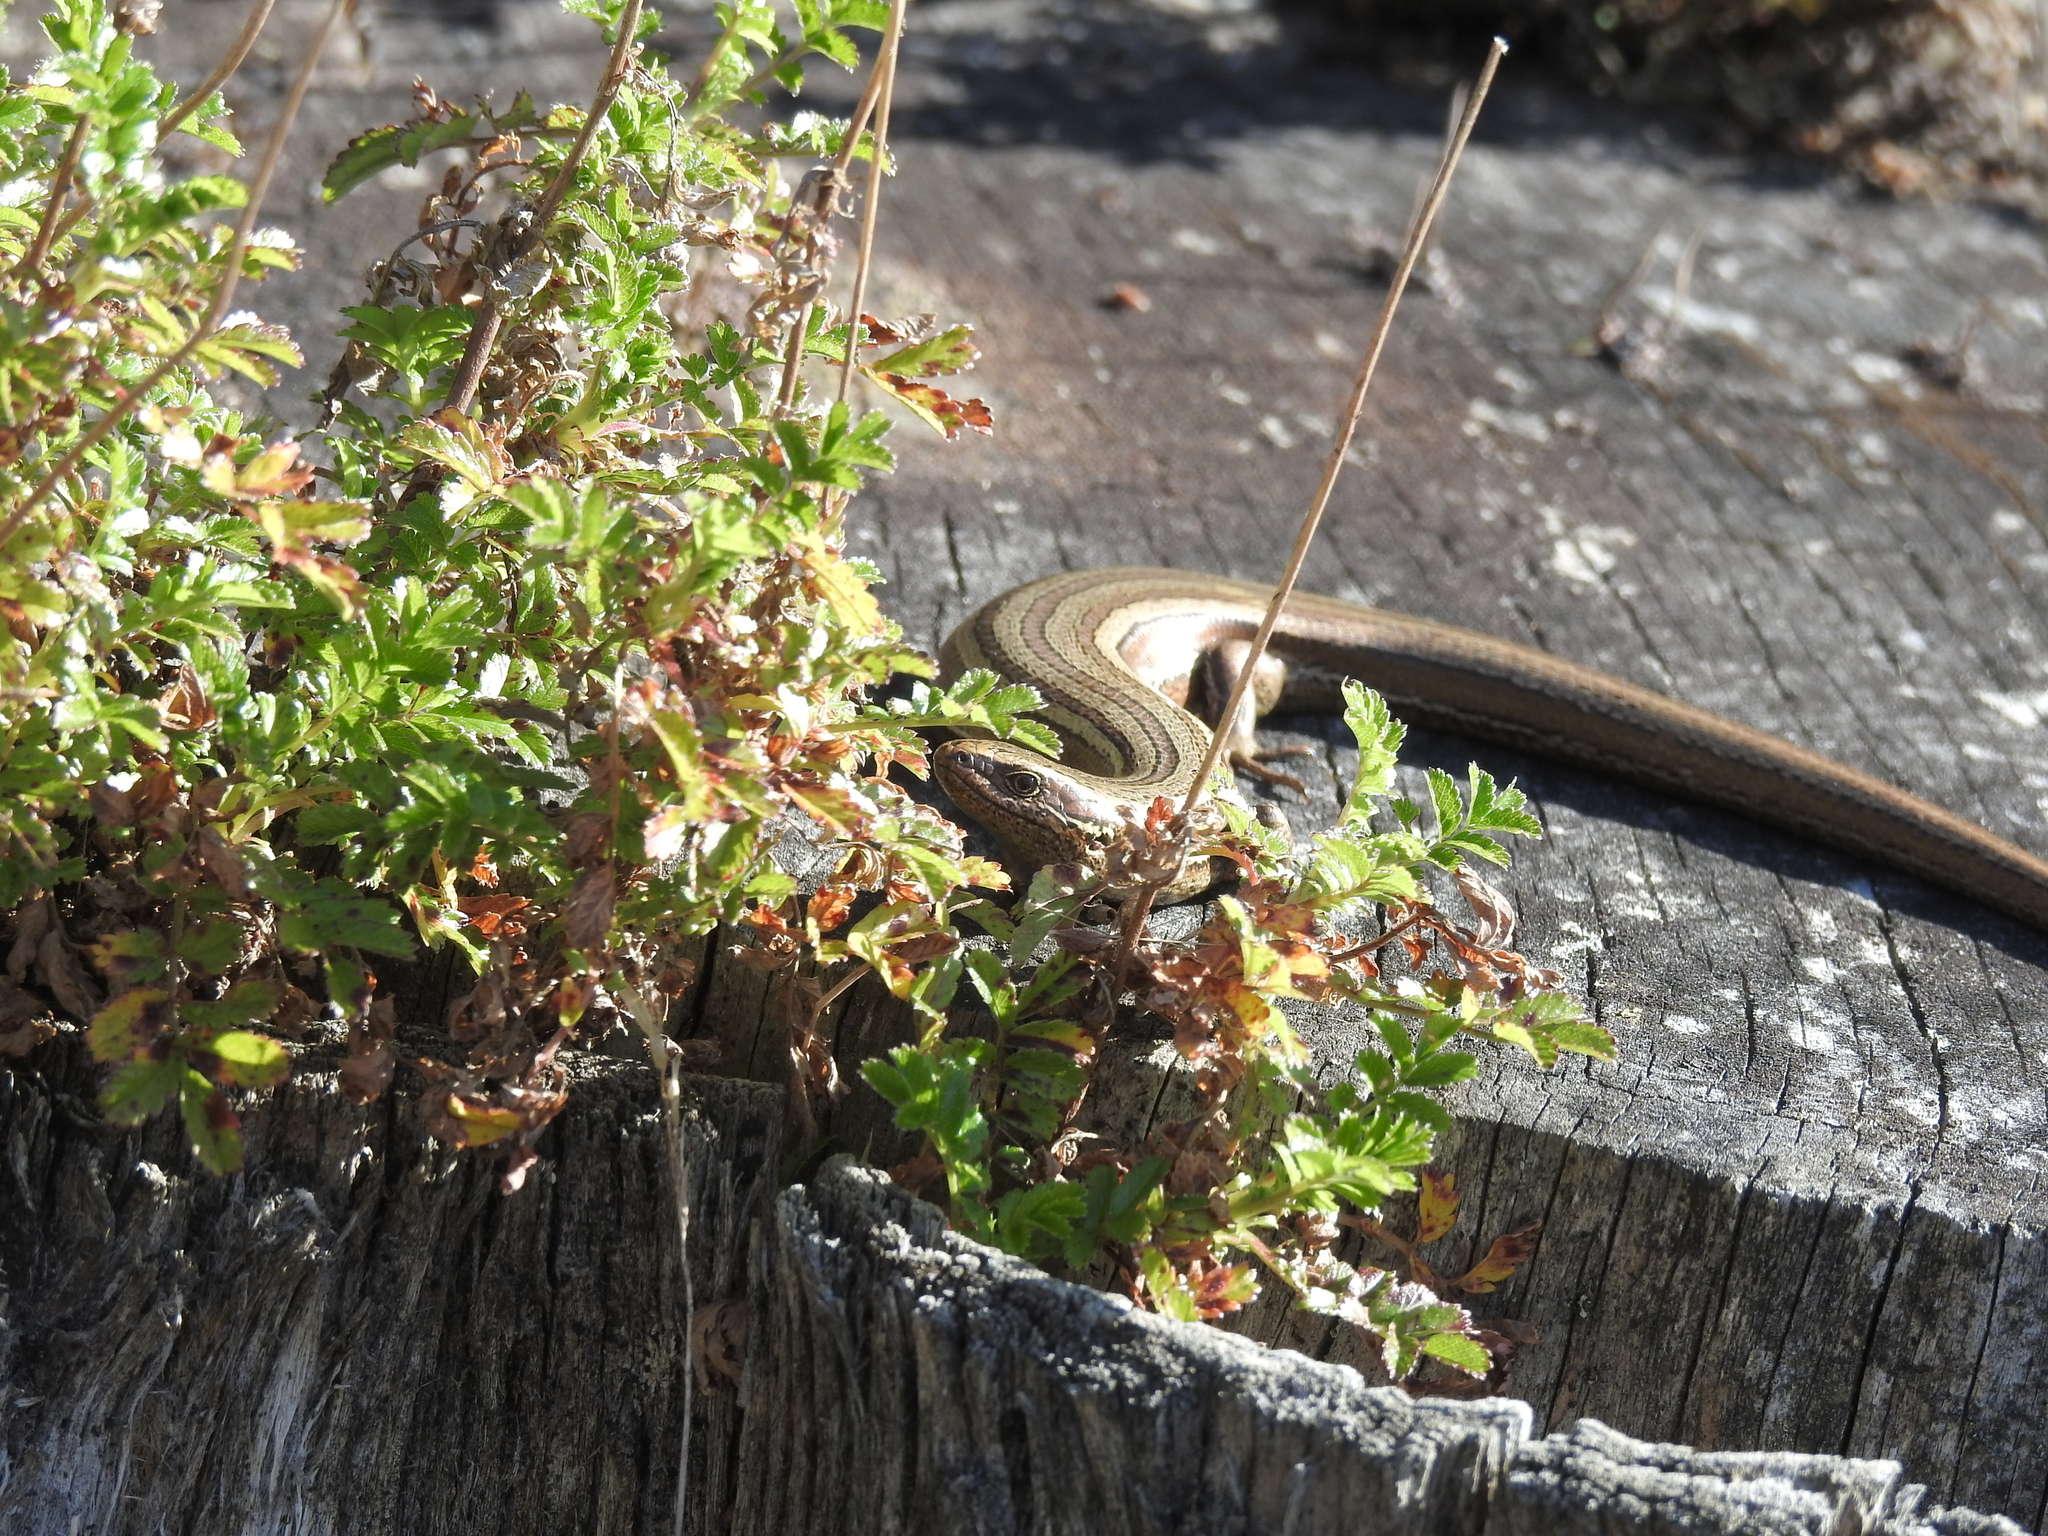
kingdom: Animalia
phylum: Chordata
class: Squamata
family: Scincidae
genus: Oligosoma
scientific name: Oligosoma polychroma
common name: Common new zealand skink
